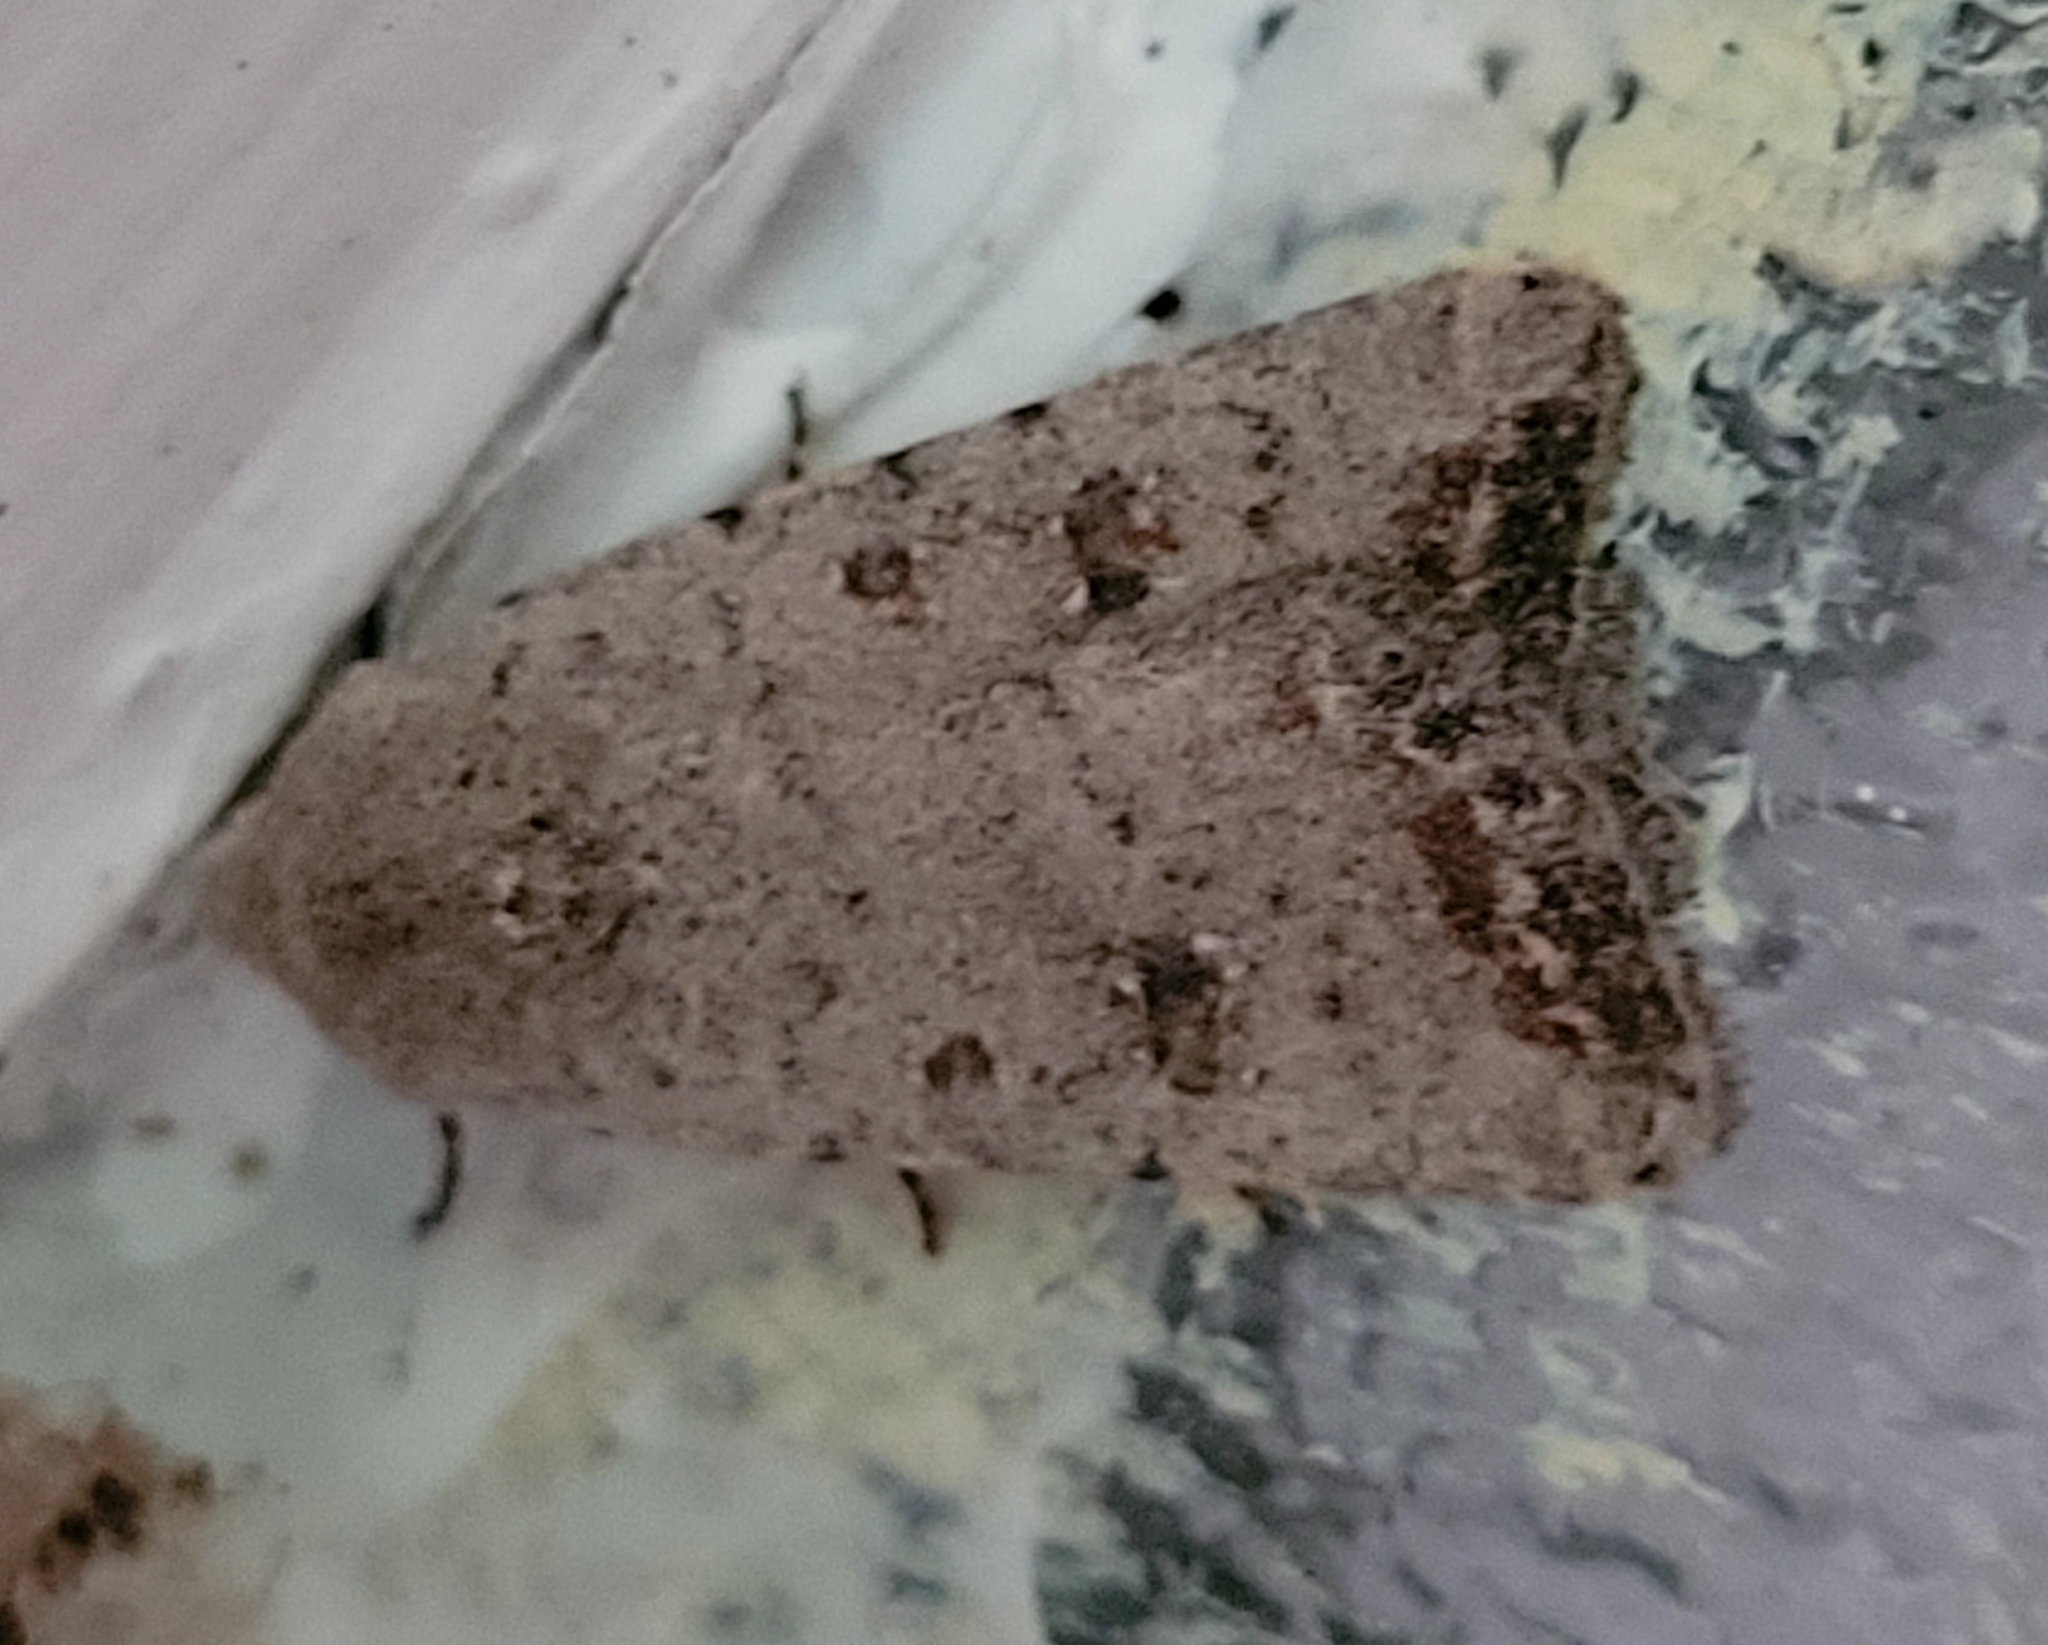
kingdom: Animalia
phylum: Arthropoda
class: Insecta
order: Lepidoptera
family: Noctuidae
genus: Caradrina
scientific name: Caradrina montana
